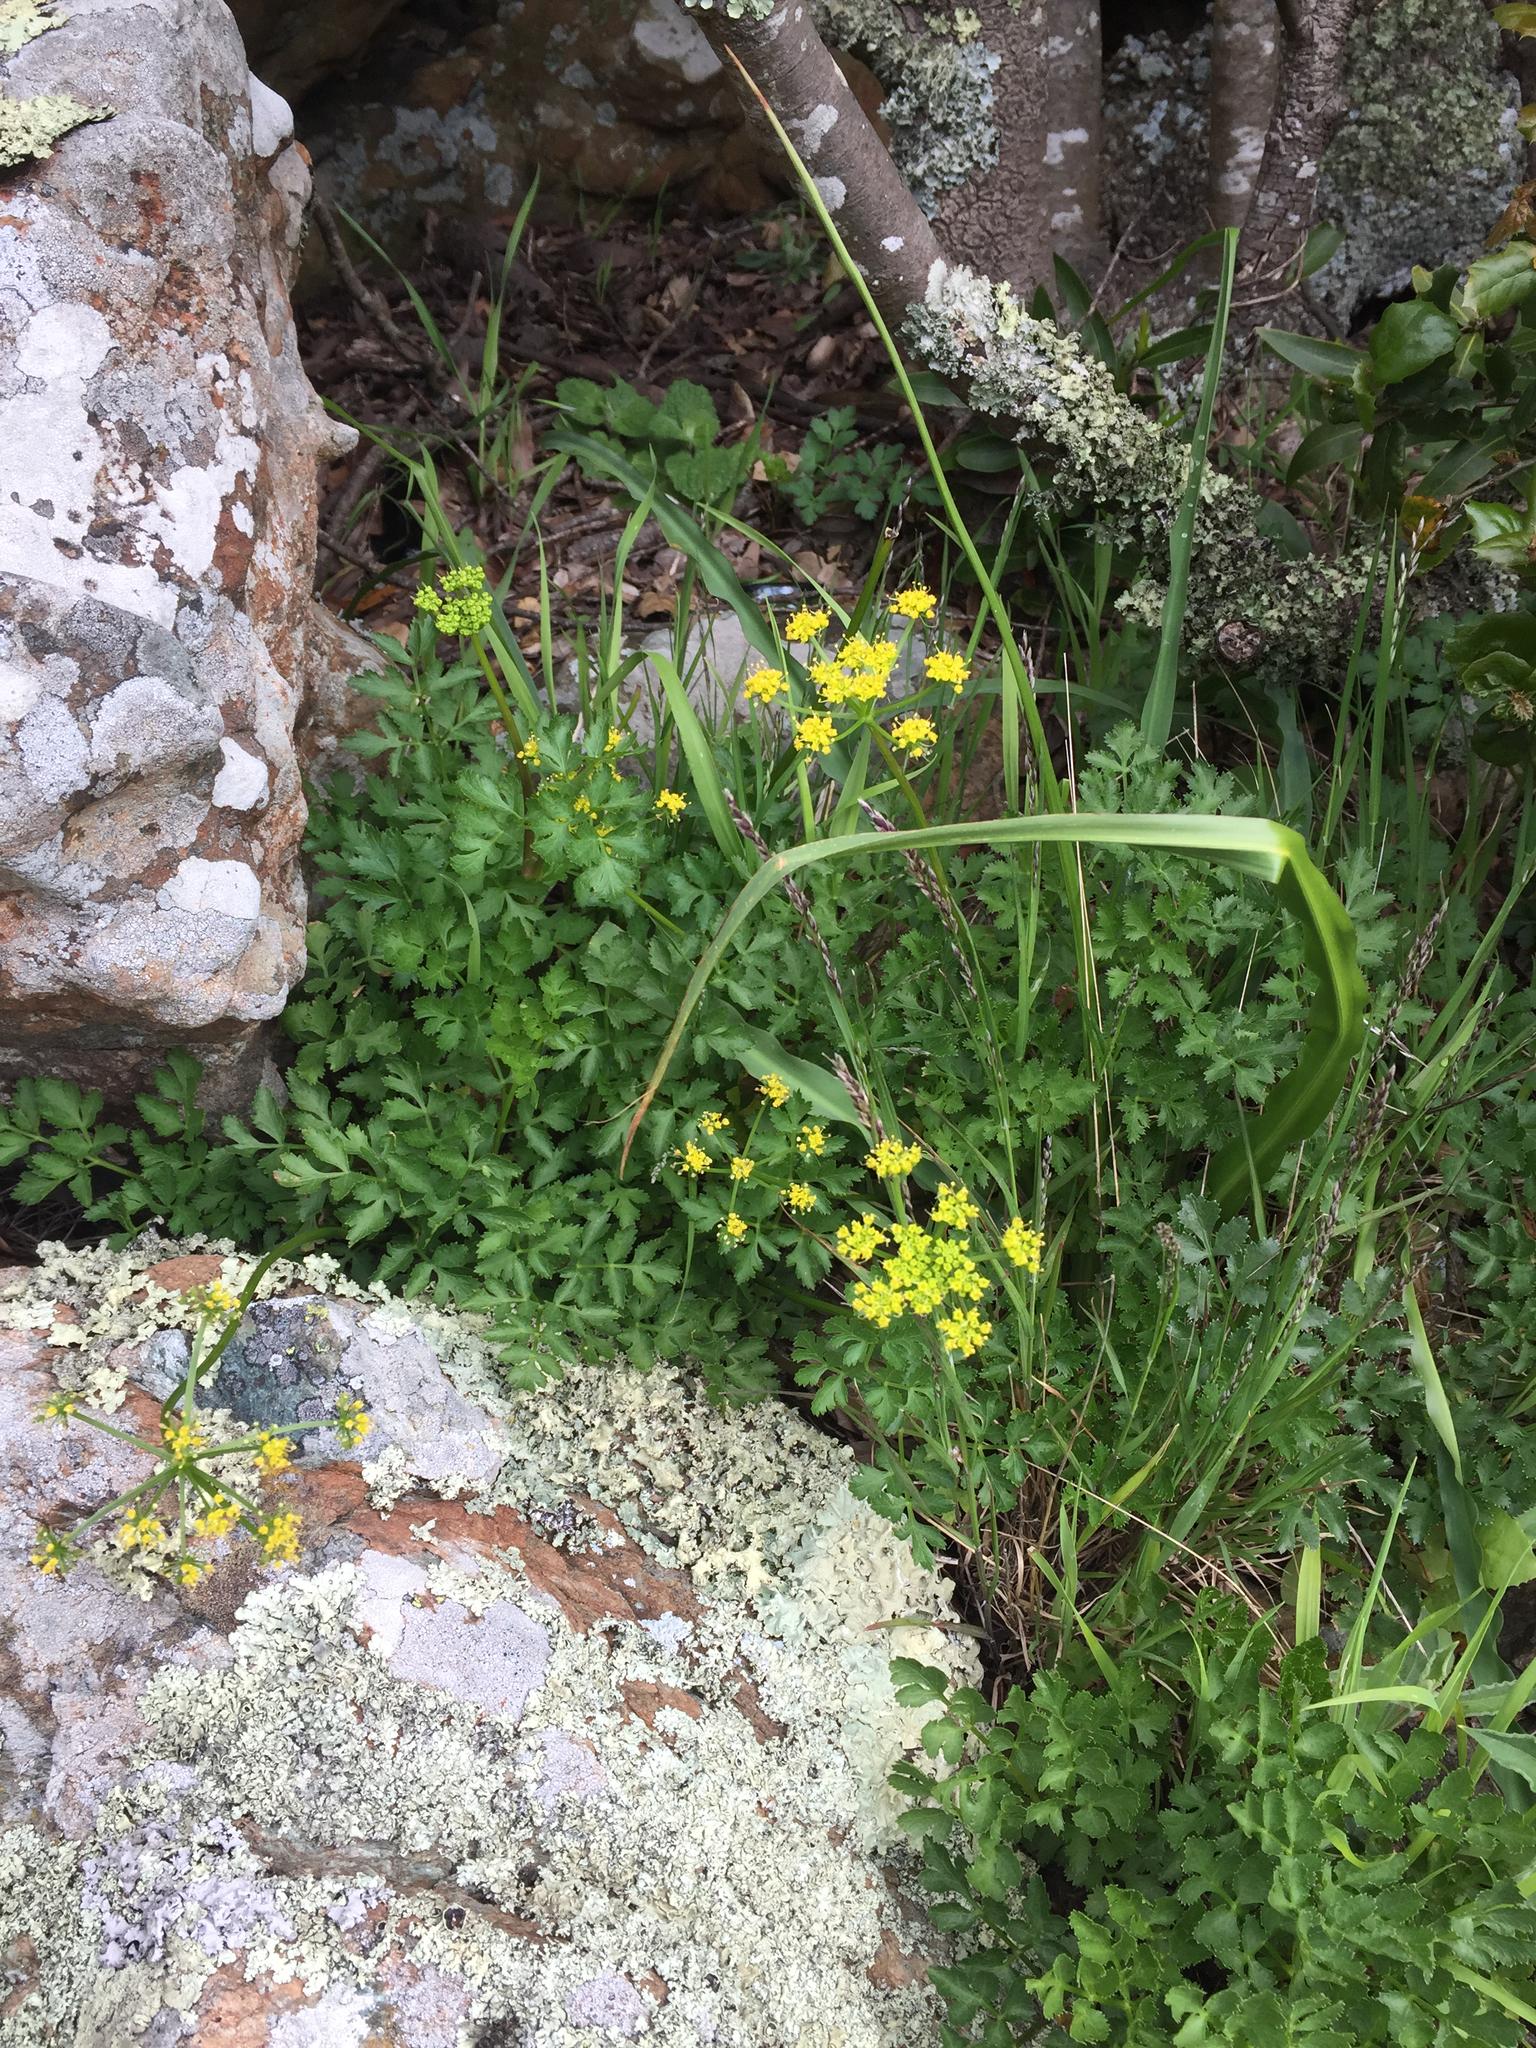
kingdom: Plantae
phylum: Tracheophyta
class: Magnoliopsida
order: Apiales
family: Apiaceae
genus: Tauschia
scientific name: Tauschia kelloggii
